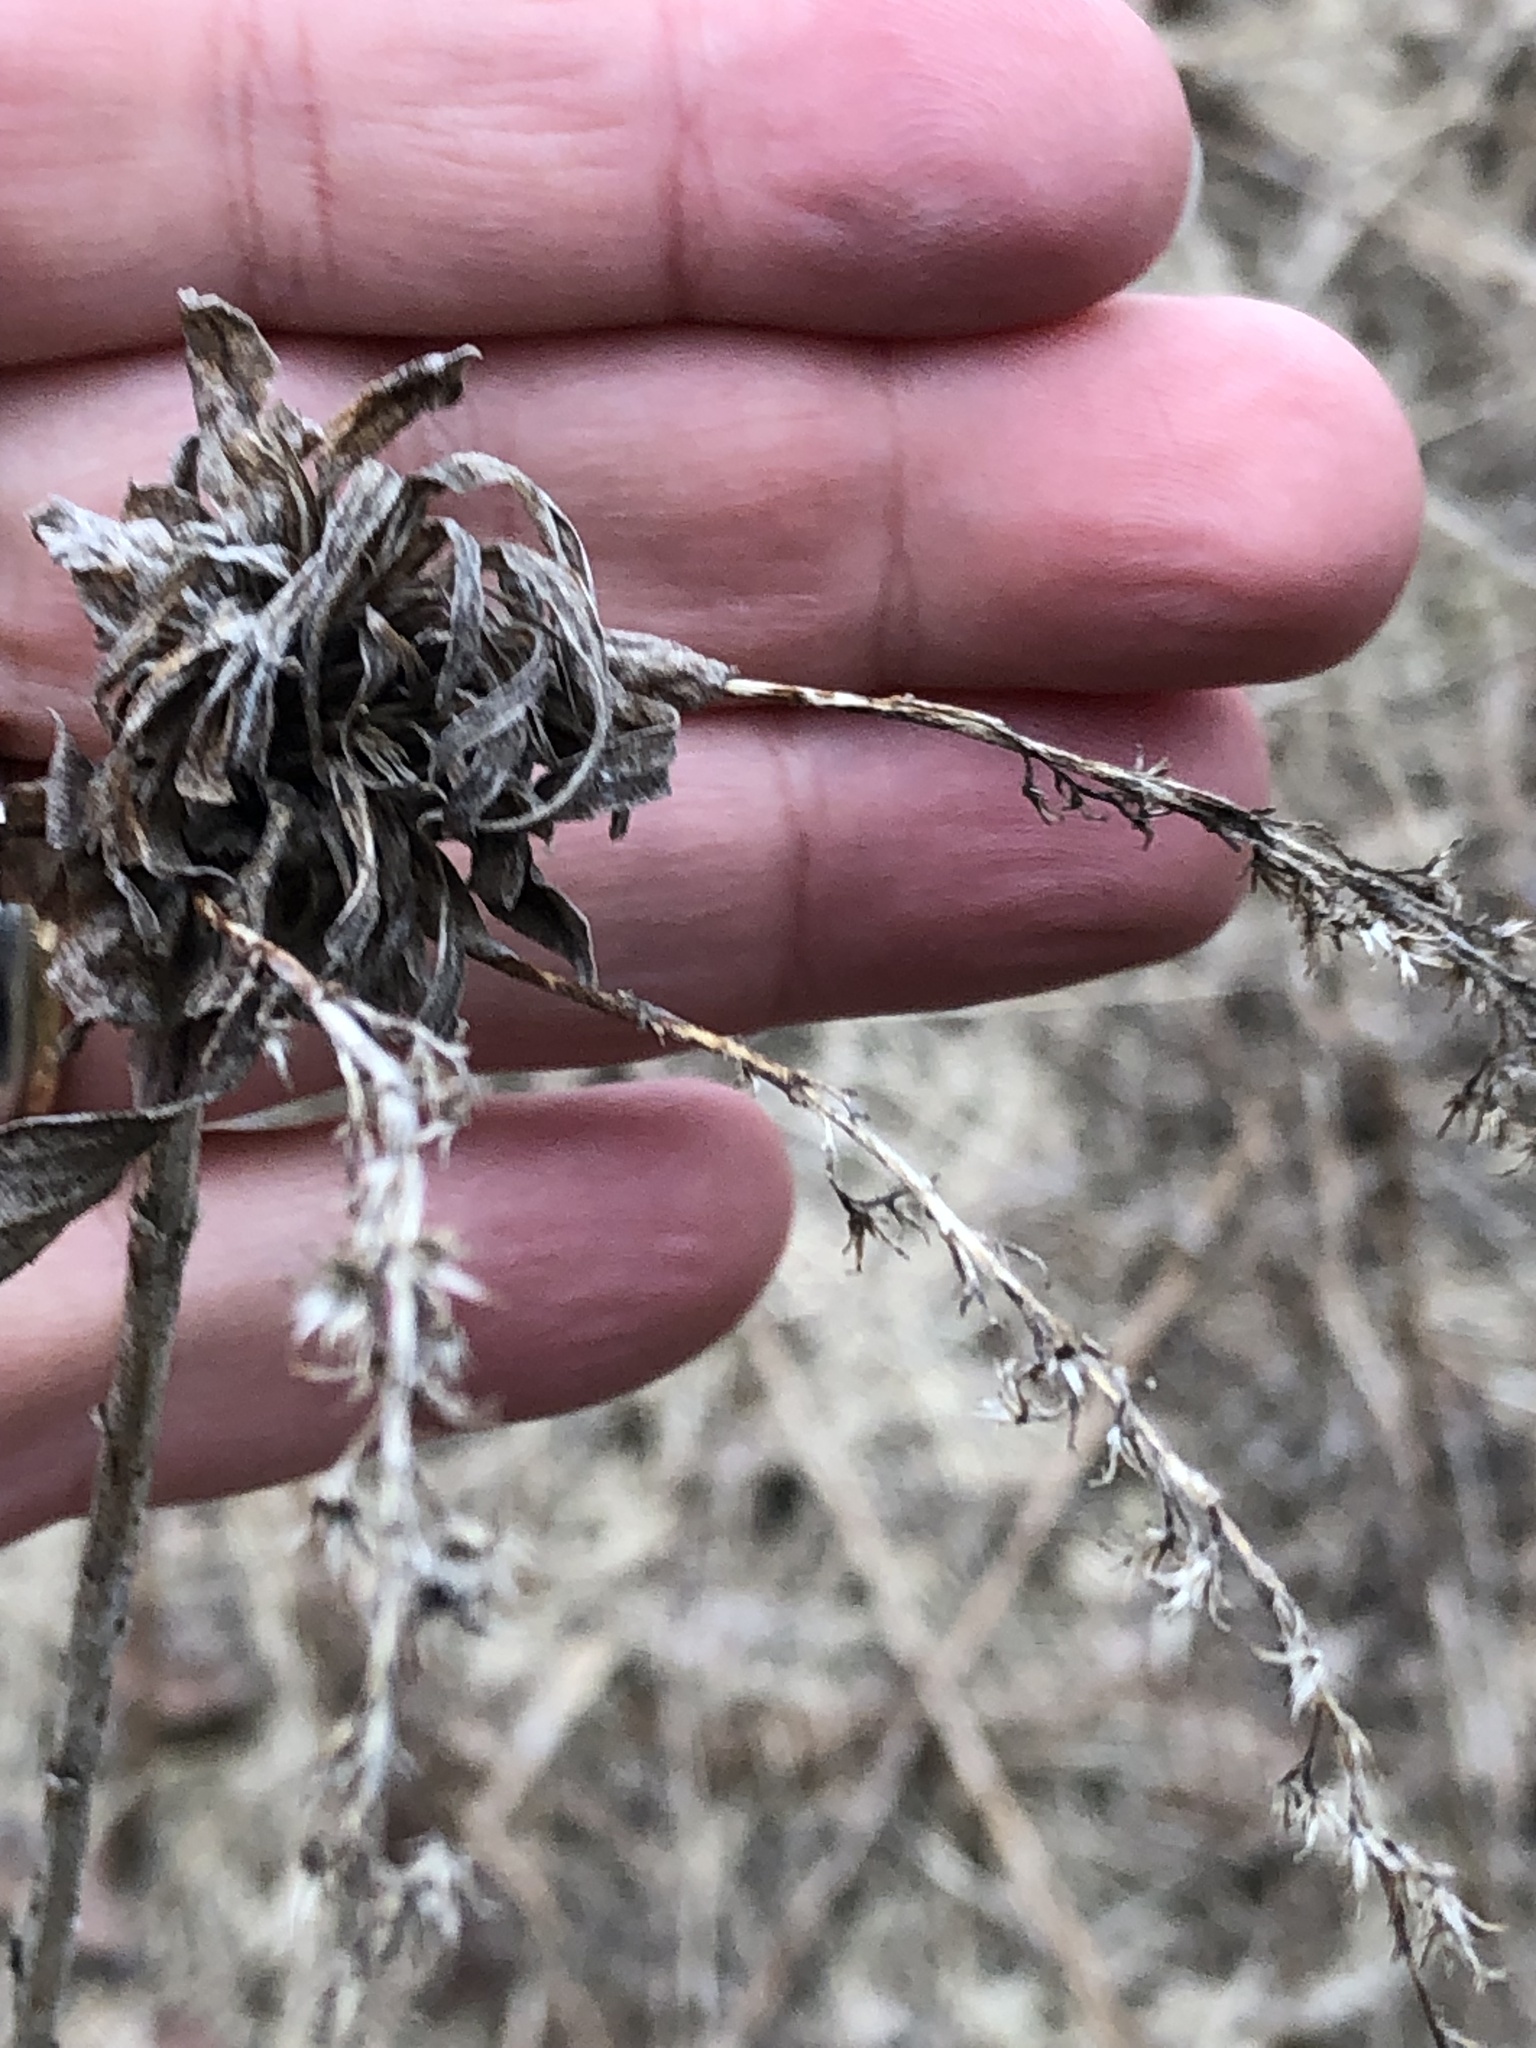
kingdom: Animalia
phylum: Arthropoda
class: Insecta
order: Diptera
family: Cecidomyiidae
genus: Rhopalomyia
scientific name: Rhopalomyia solidaginis
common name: Goldenrod bunch gall midge
